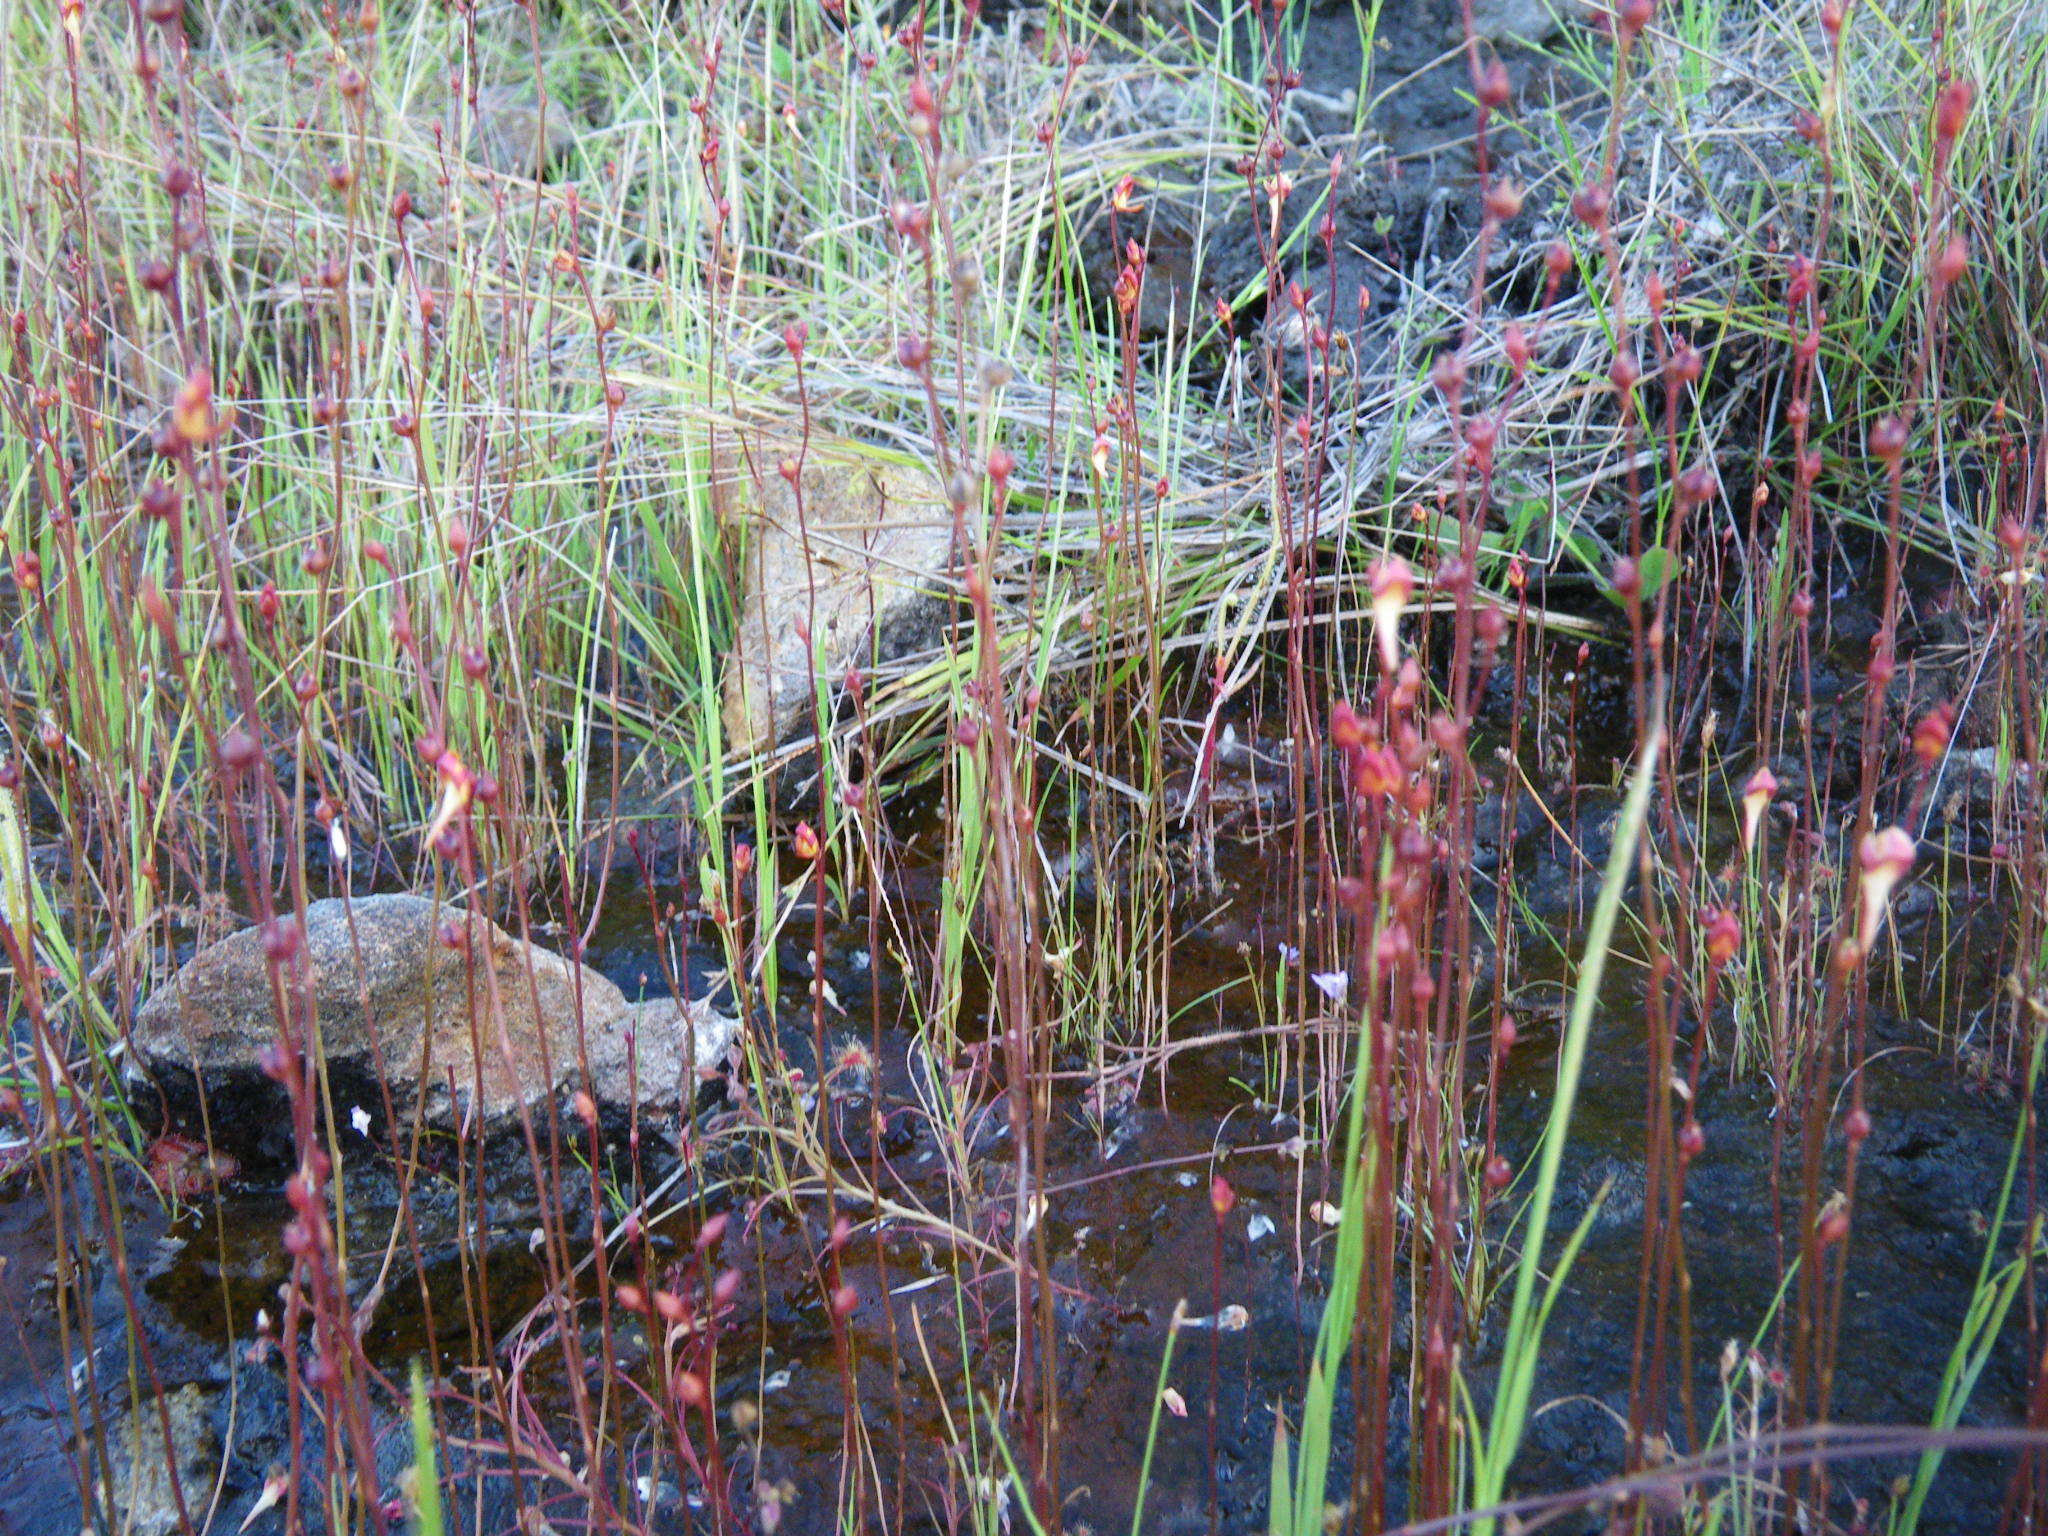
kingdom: Plantae
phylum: Tracheophyta
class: Magnoliopsida
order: Caryophyllales
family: Droseraceae
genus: Drosera
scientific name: Drosera banksii
